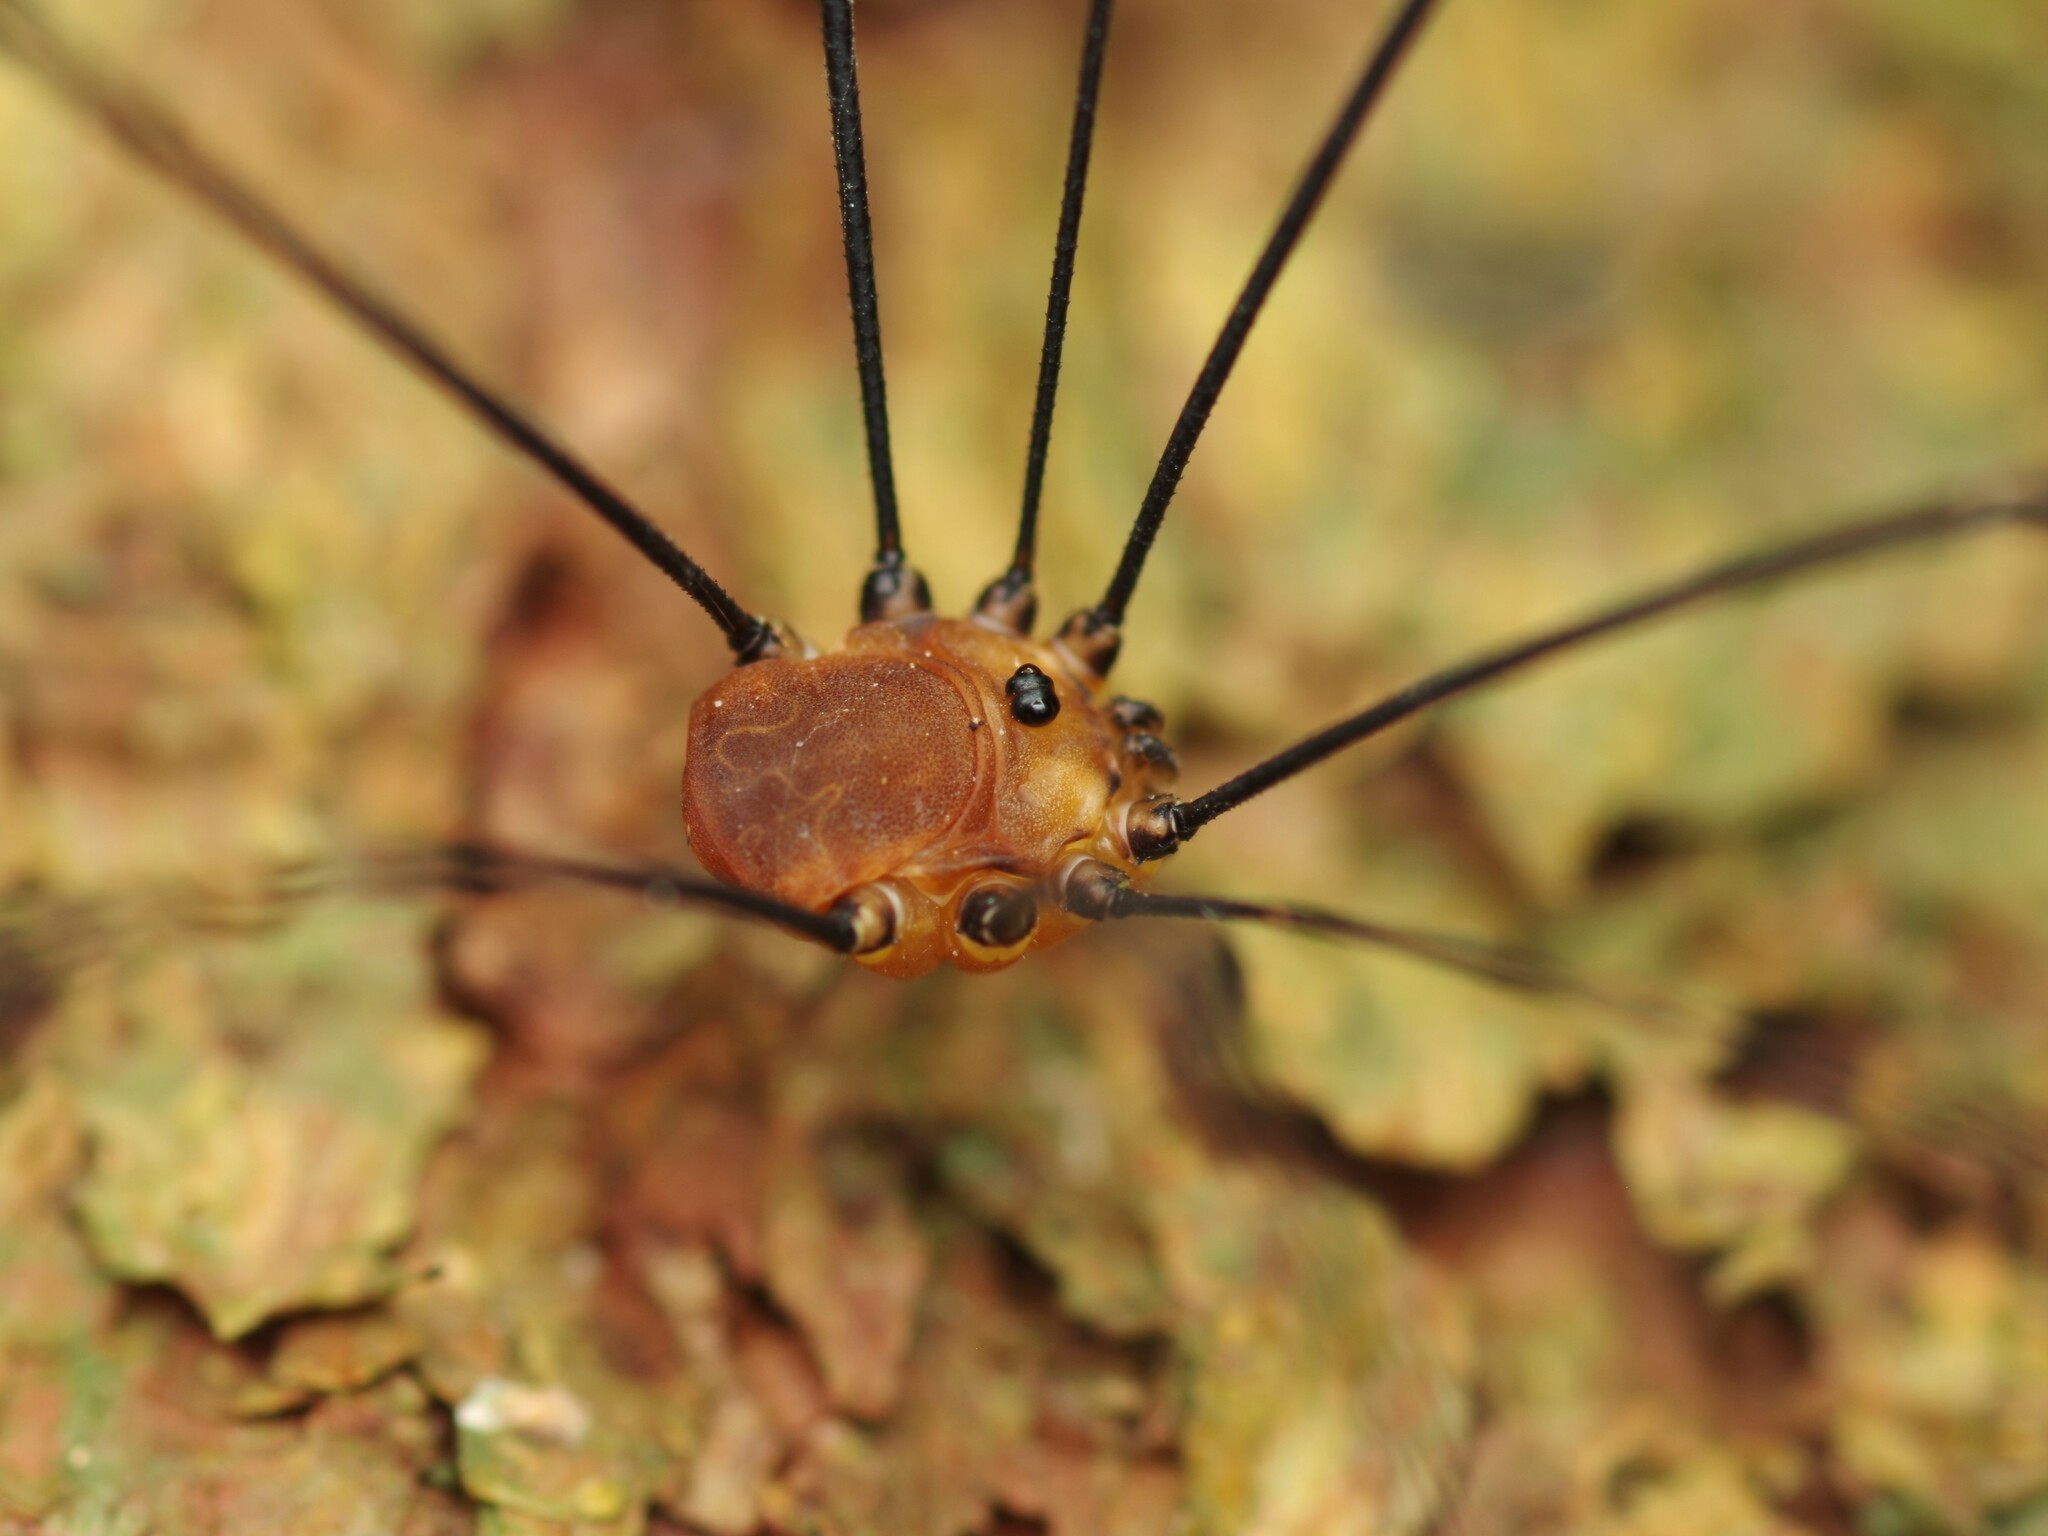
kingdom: Animalia
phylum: Arthropoda
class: Arachnida
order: Opiliones
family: Sclerosomatidae
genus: Leiobunum
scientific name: Leiobunum rotundum
